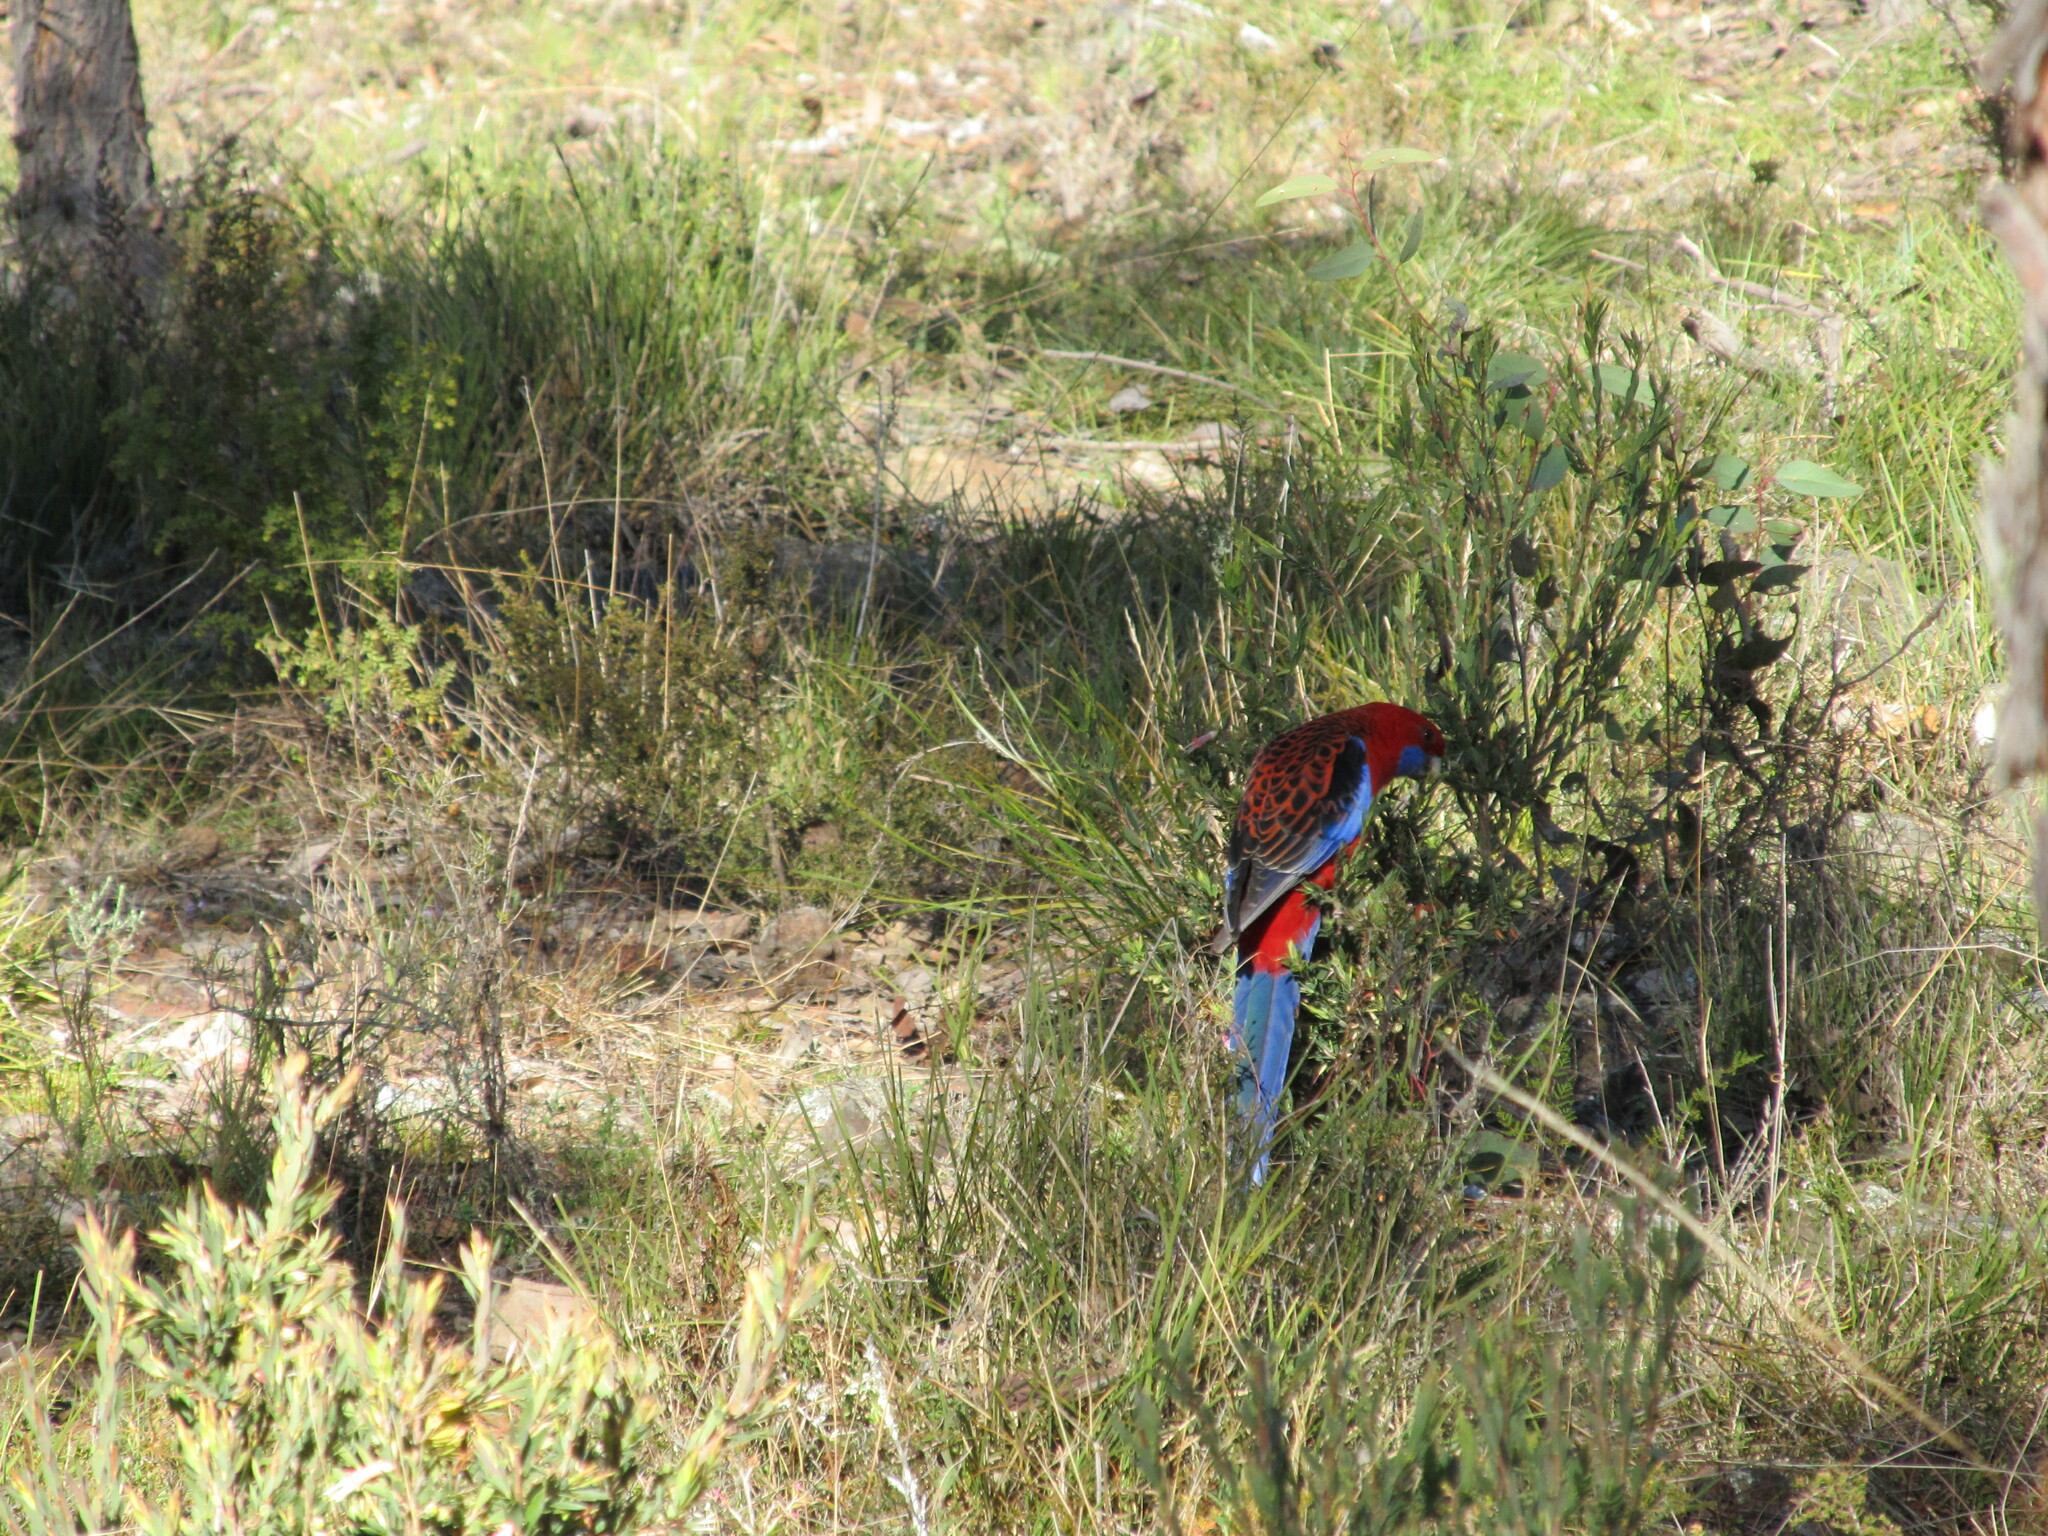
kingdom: Animalia
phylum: Chordata
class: Aves
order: Psittaciformes
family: Psittacidae
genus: Platycercus
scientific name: Platycercus elegans
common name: Crimson rosella
